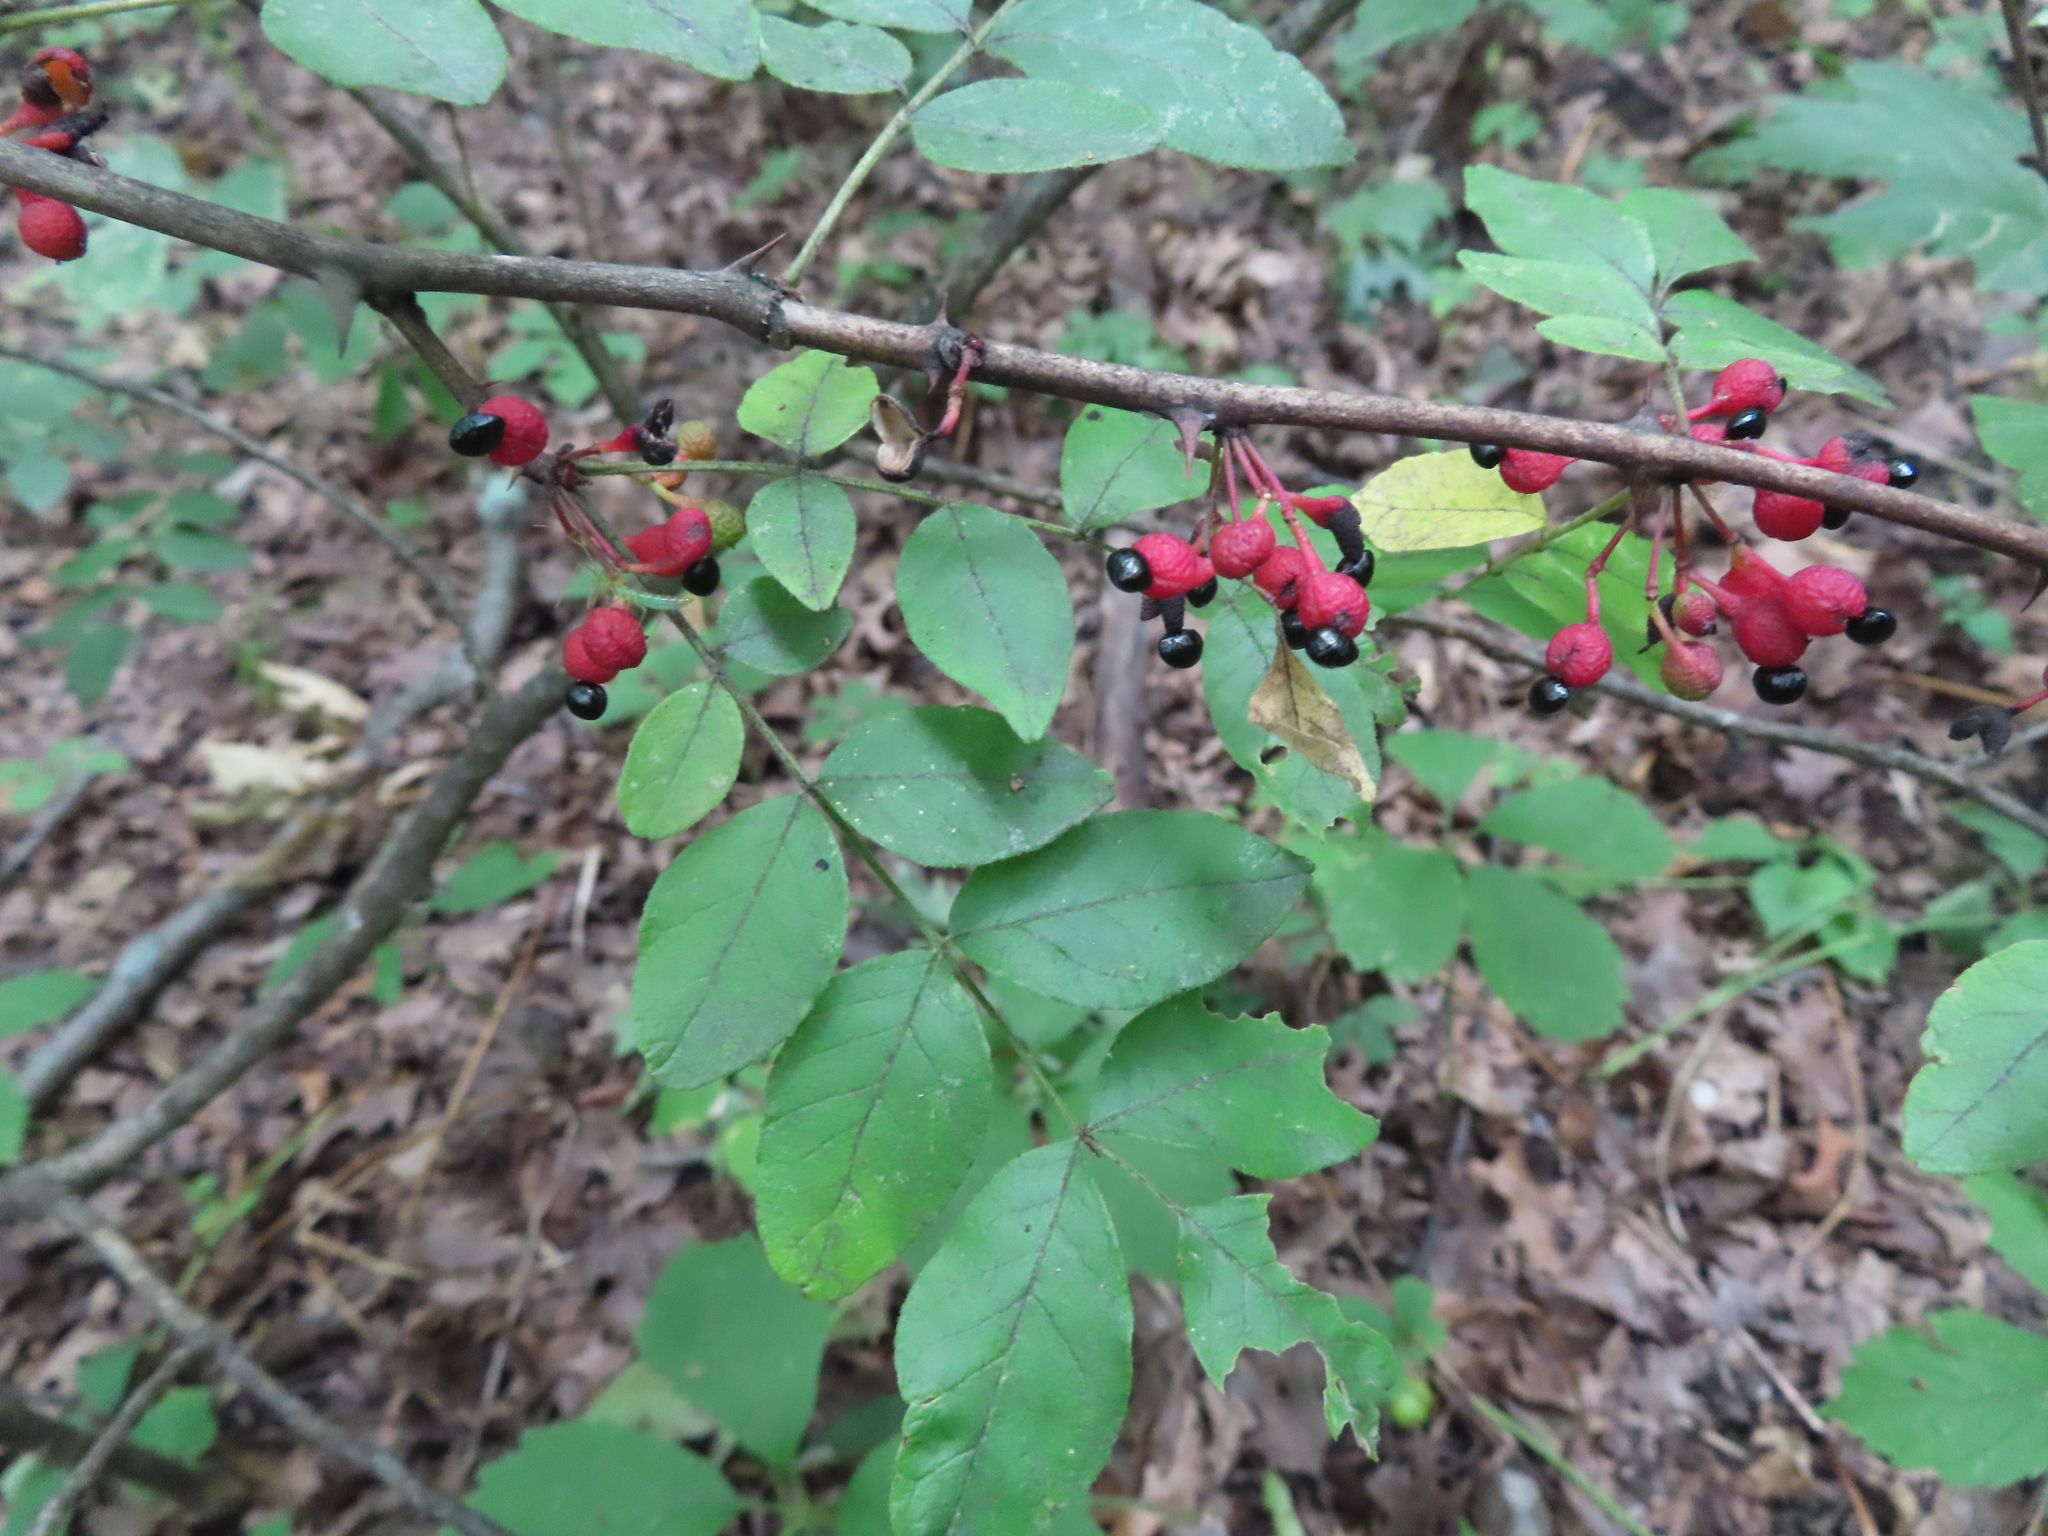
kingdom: Plantae
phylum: Tracheophyta
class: Magnoliopsida
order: Sapindales
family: Rutaceae
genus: Zanthoxylum
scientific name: Zanthoxylum americanum
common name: Northern prickly-ash
